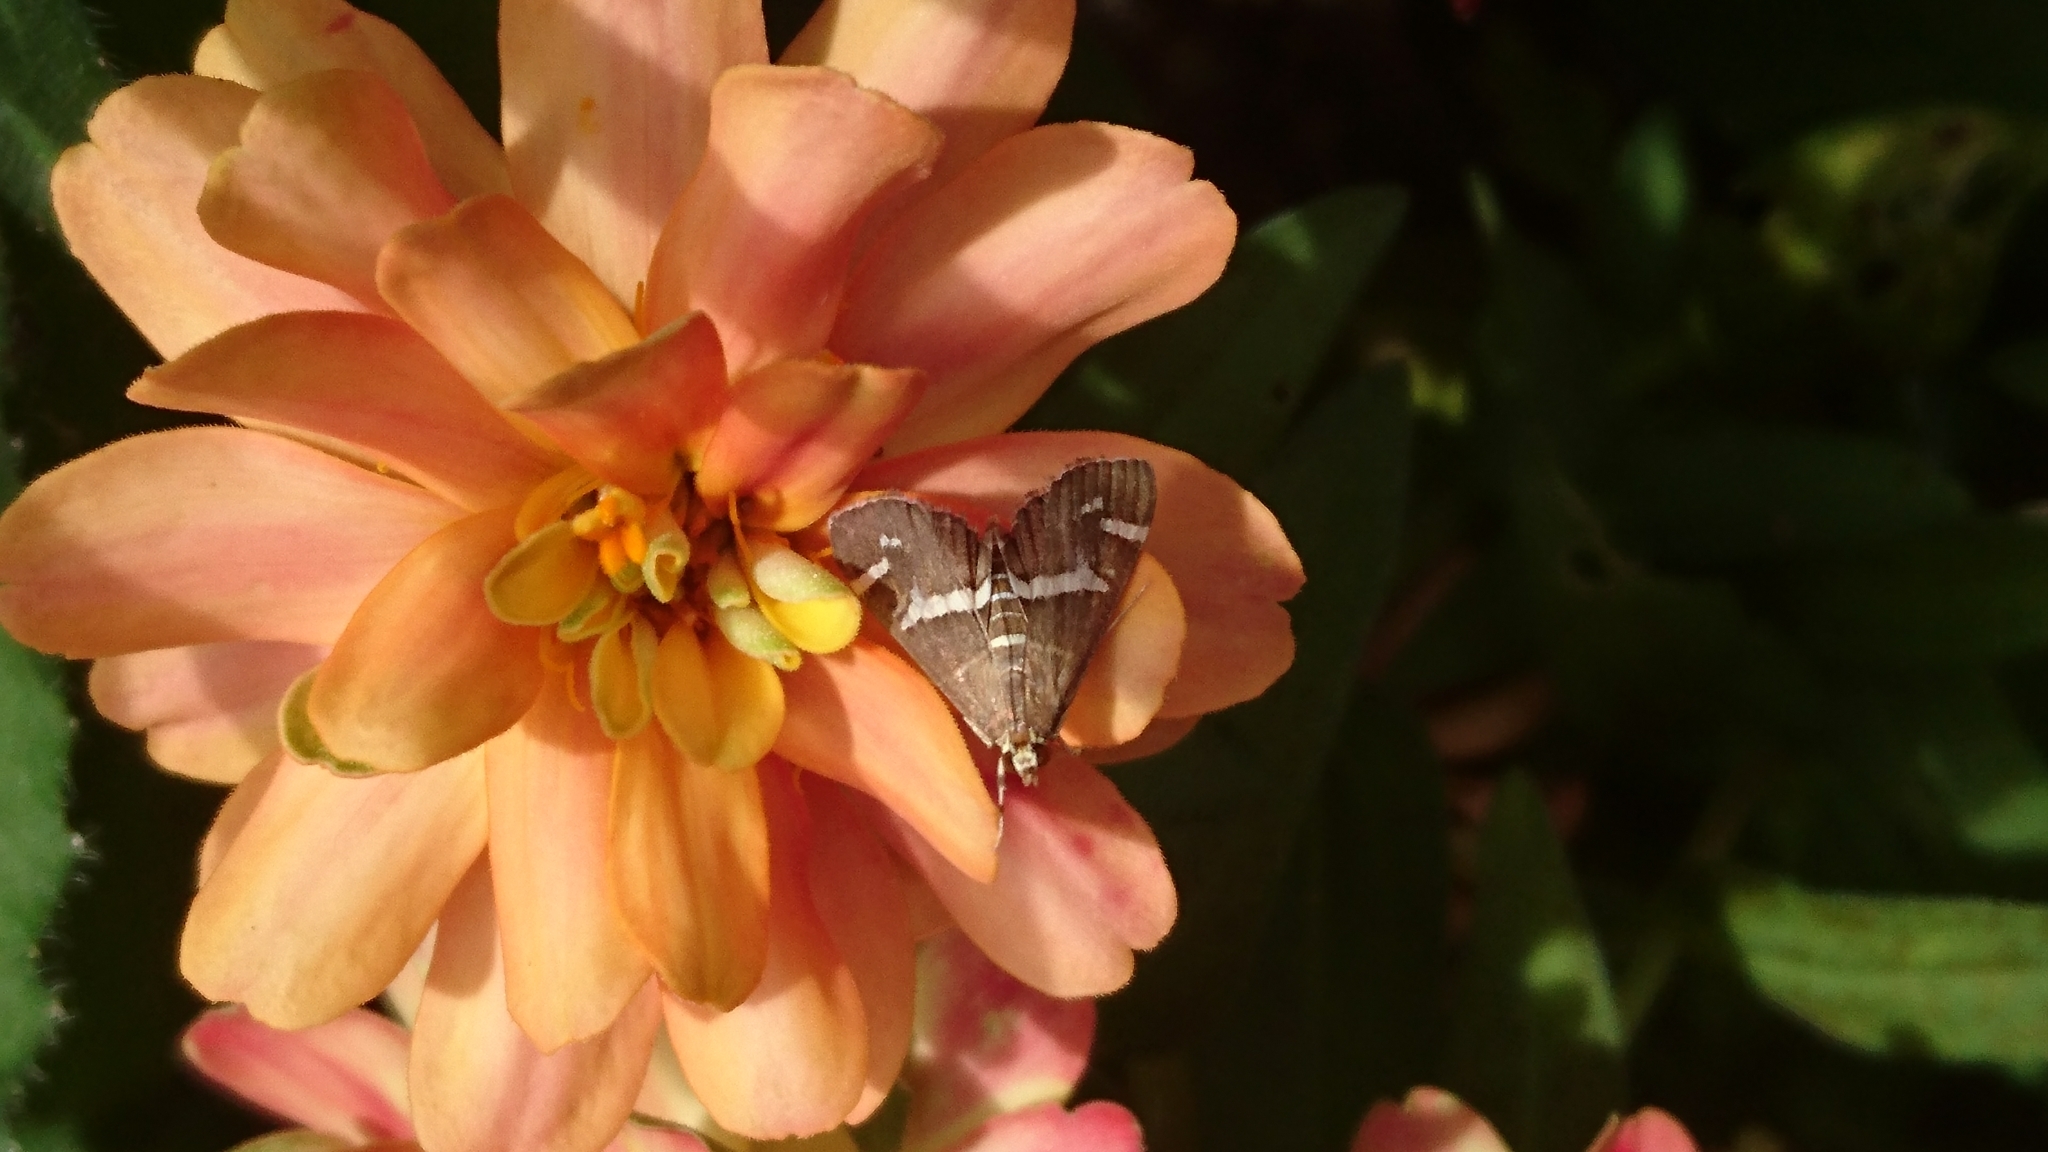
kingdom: Animalia
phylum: Arthropoda
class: Insecta
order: Lepidoptera
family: Crambidae
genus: Spoladea
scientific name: Spoladea recurvalis
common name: Beet webworm moth
